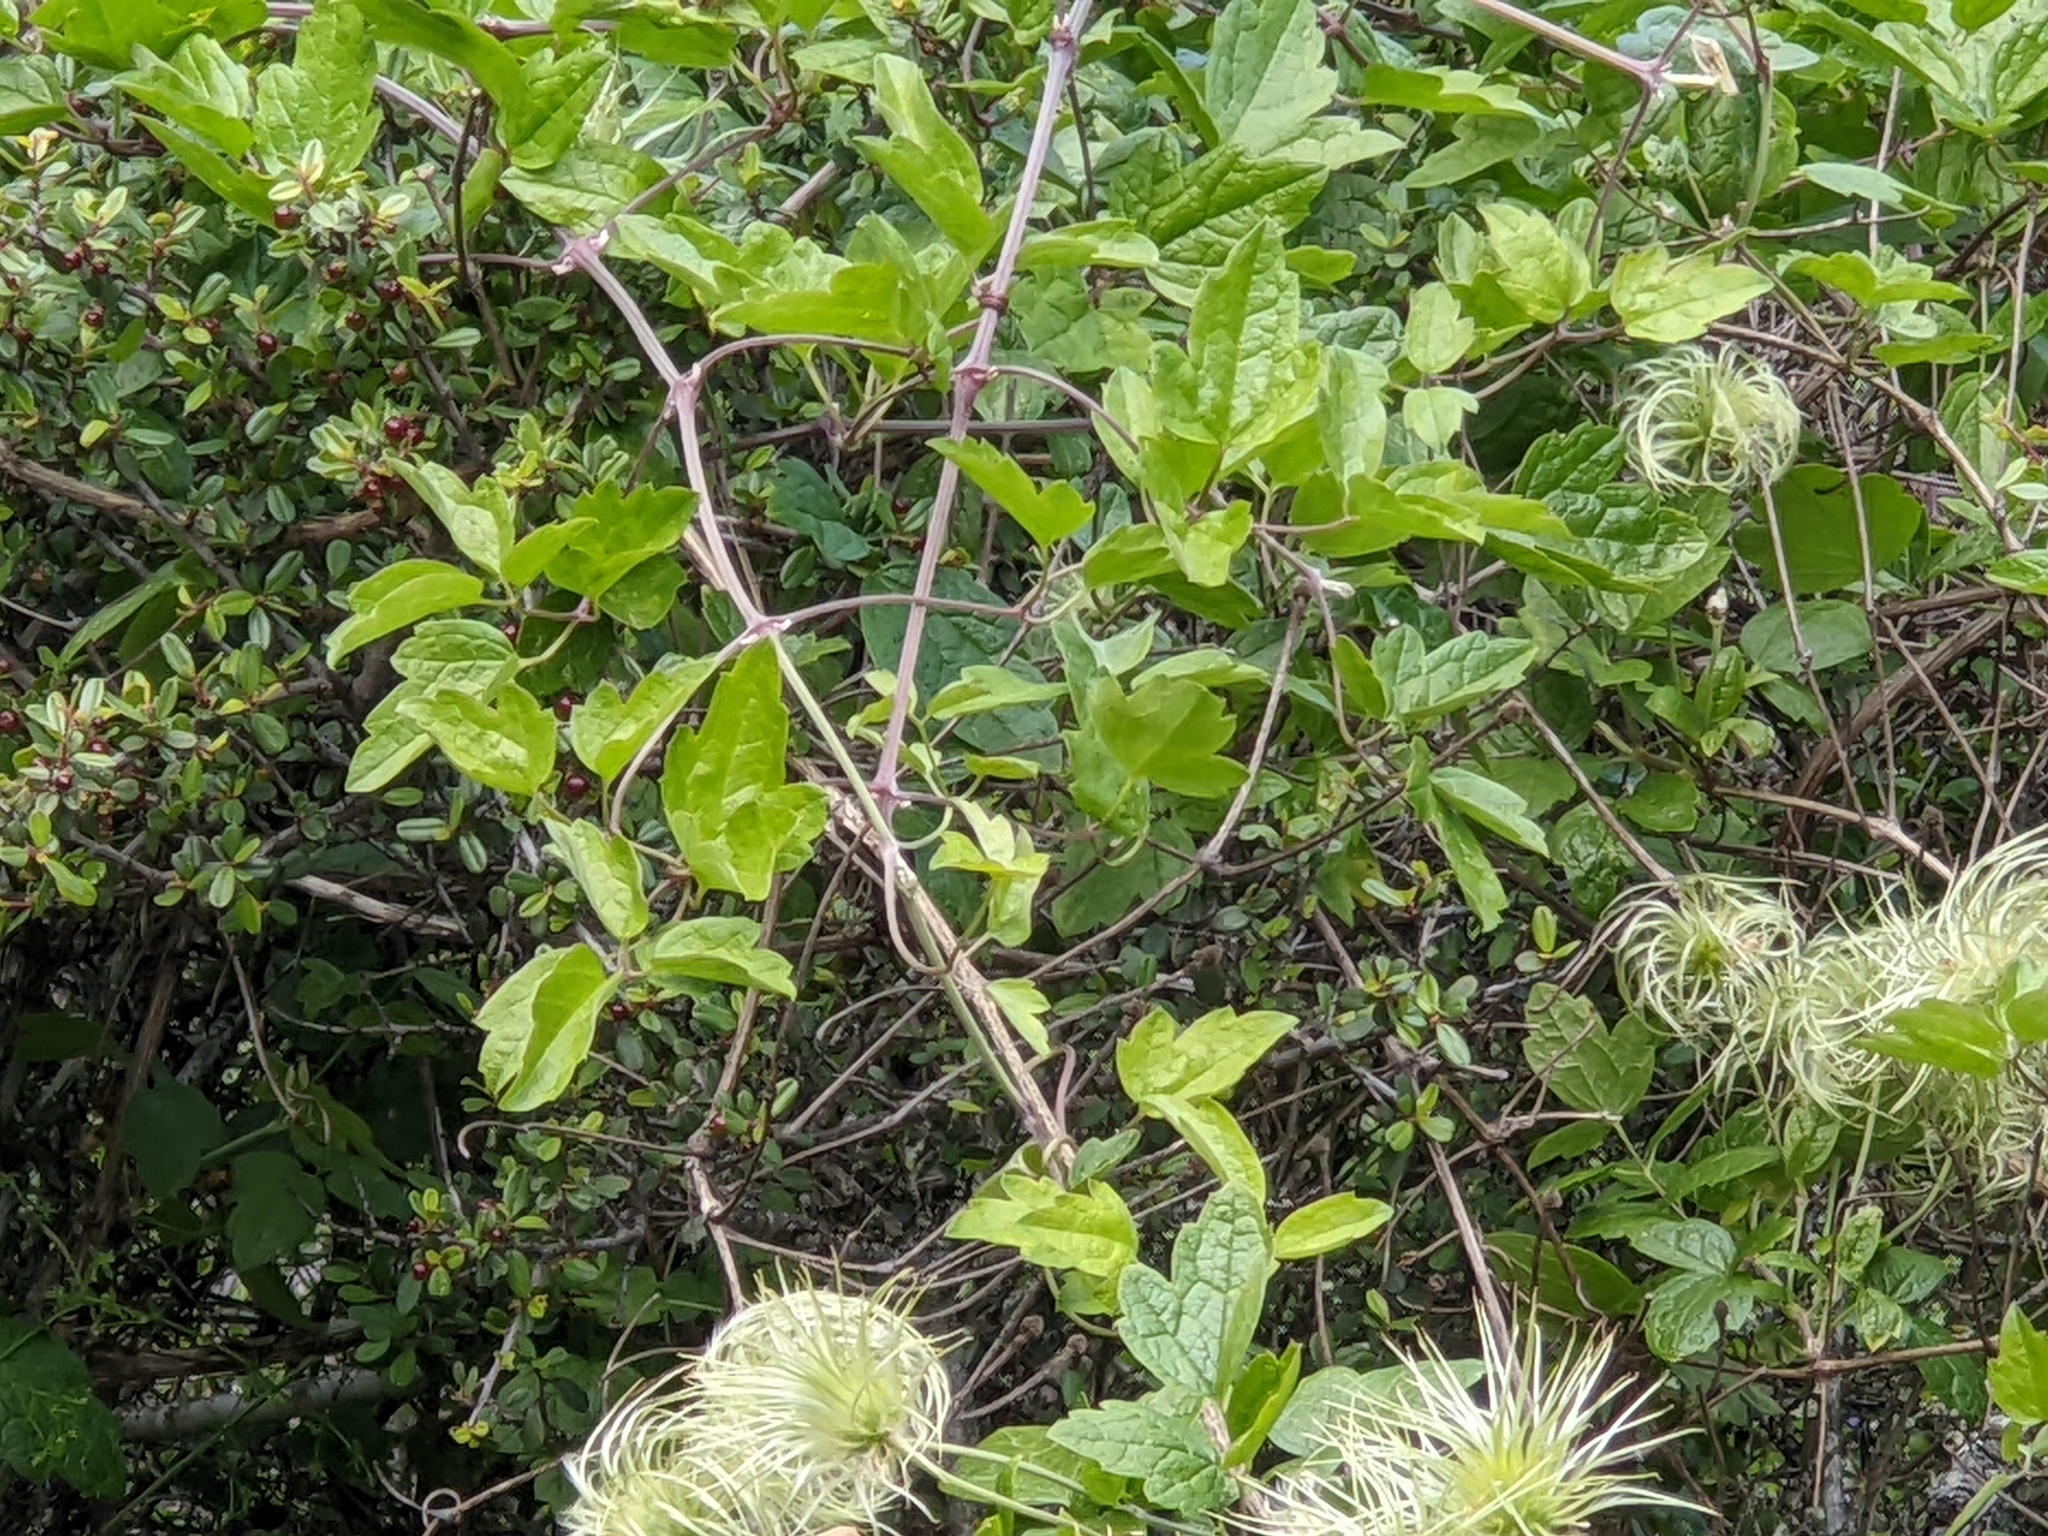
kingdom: Plantae
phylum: Tracheophyta
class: Magnoliopsida
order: Ranunculales
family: Ranunculaceae
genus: Clematis
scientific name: Clematis lasiantha
